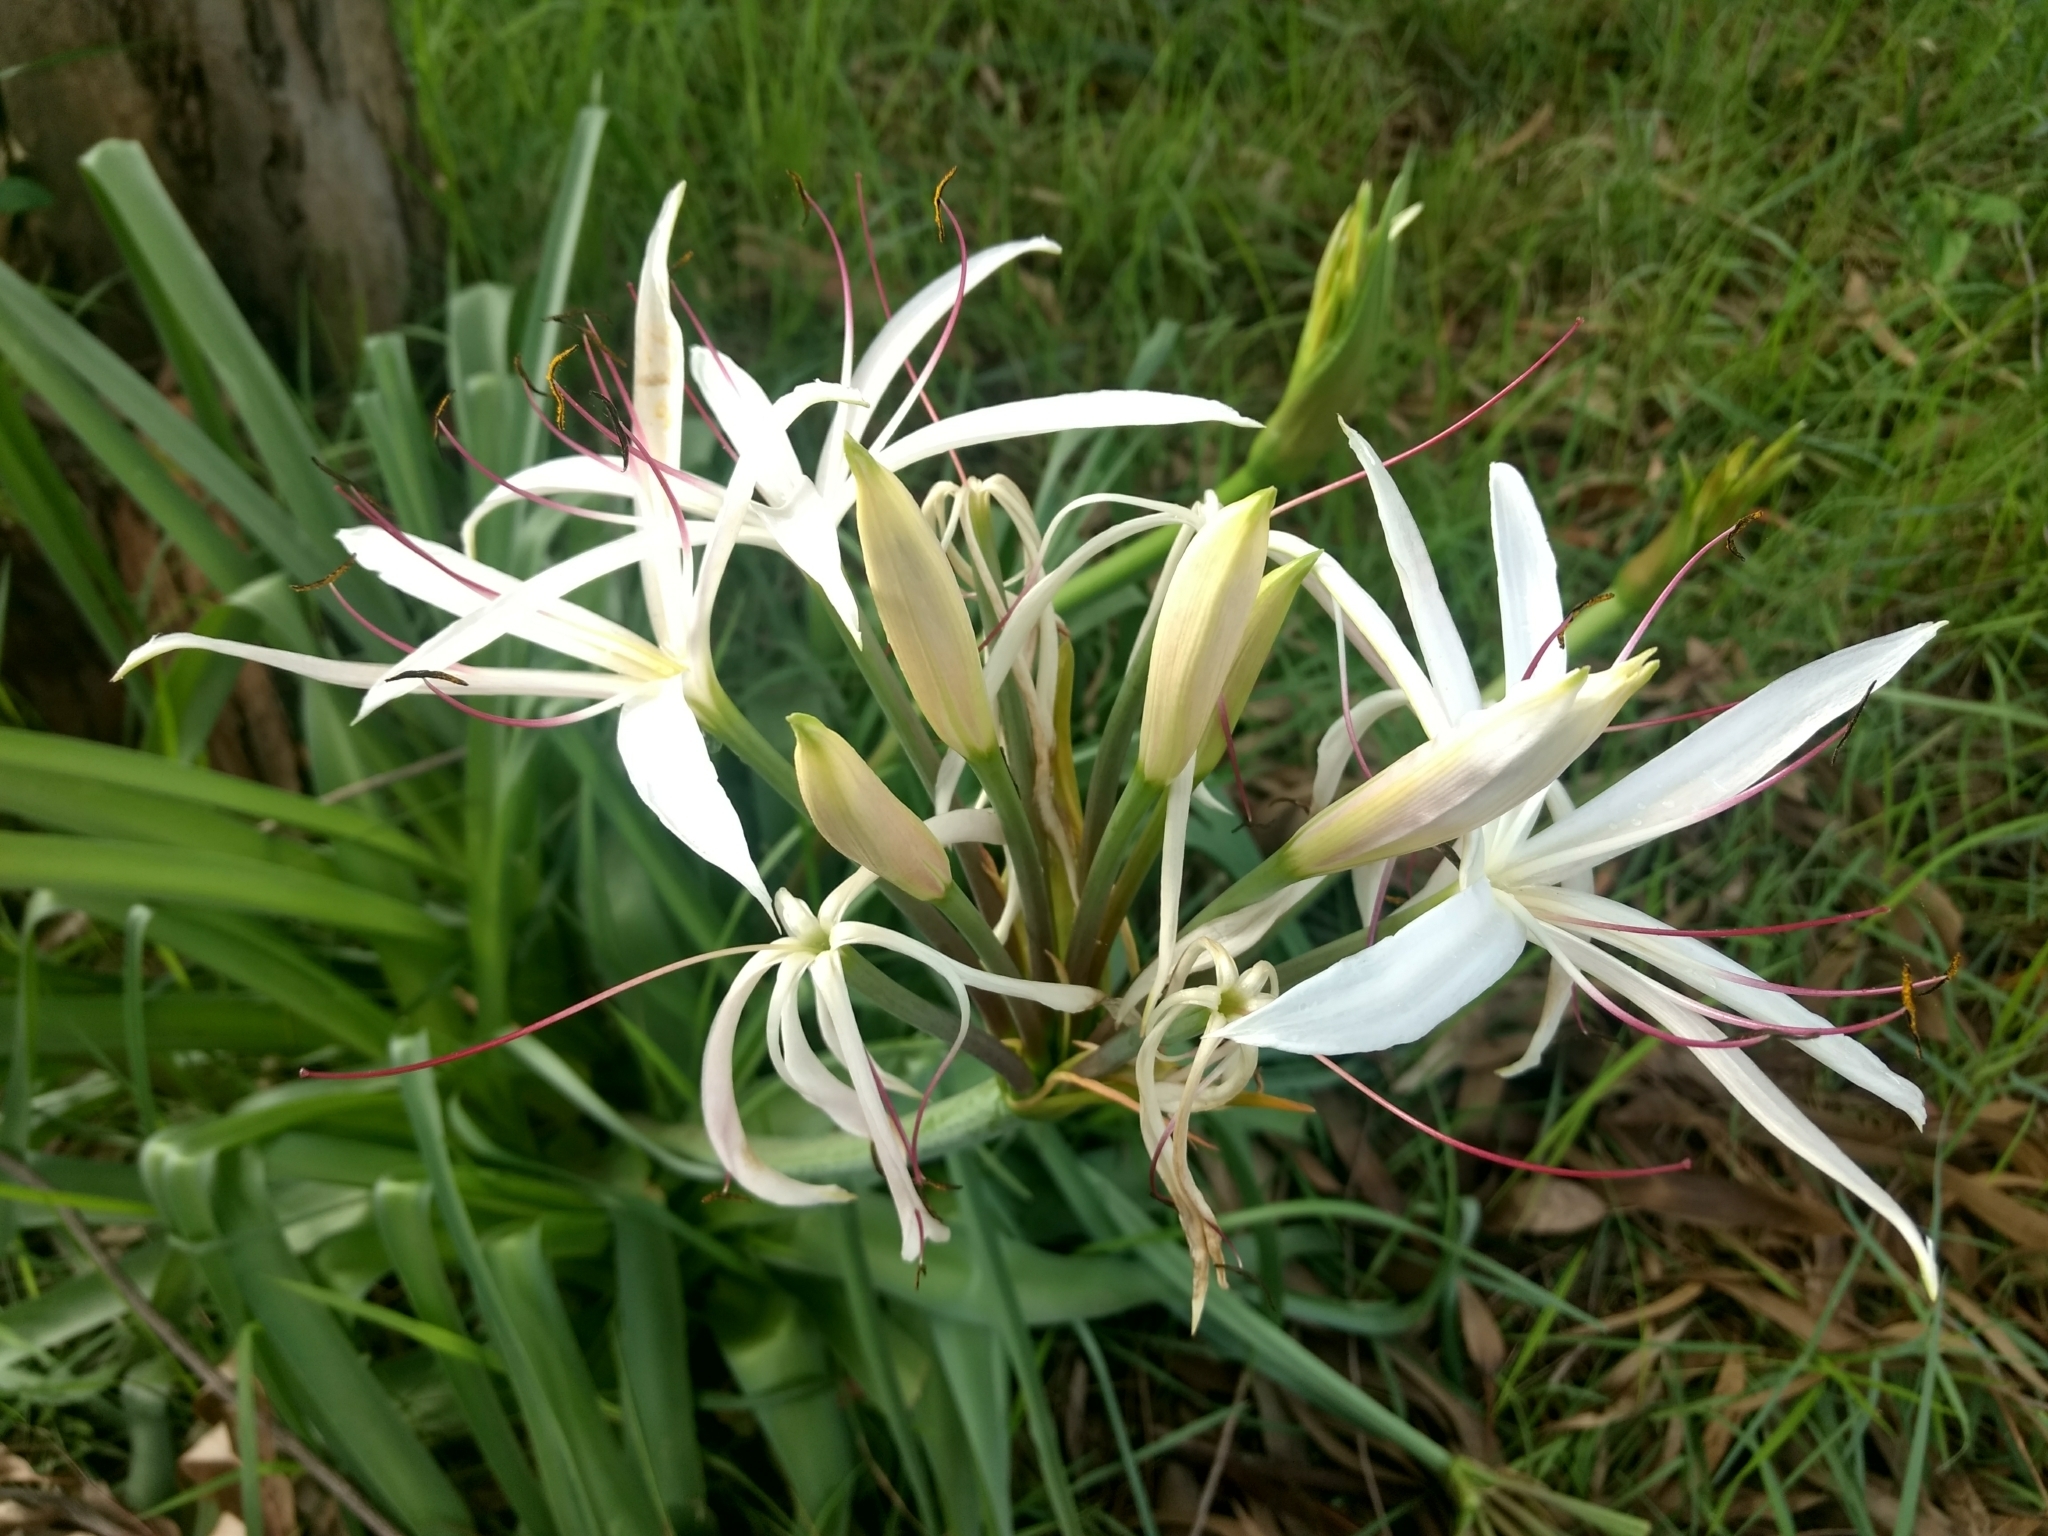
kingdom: Plantae
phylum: Tracheophyta
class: Liliopsida
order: Asparagales
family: Amaryllidaceae
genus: Crinum
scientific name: Crinum asiaticum
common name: Poisonbulb
